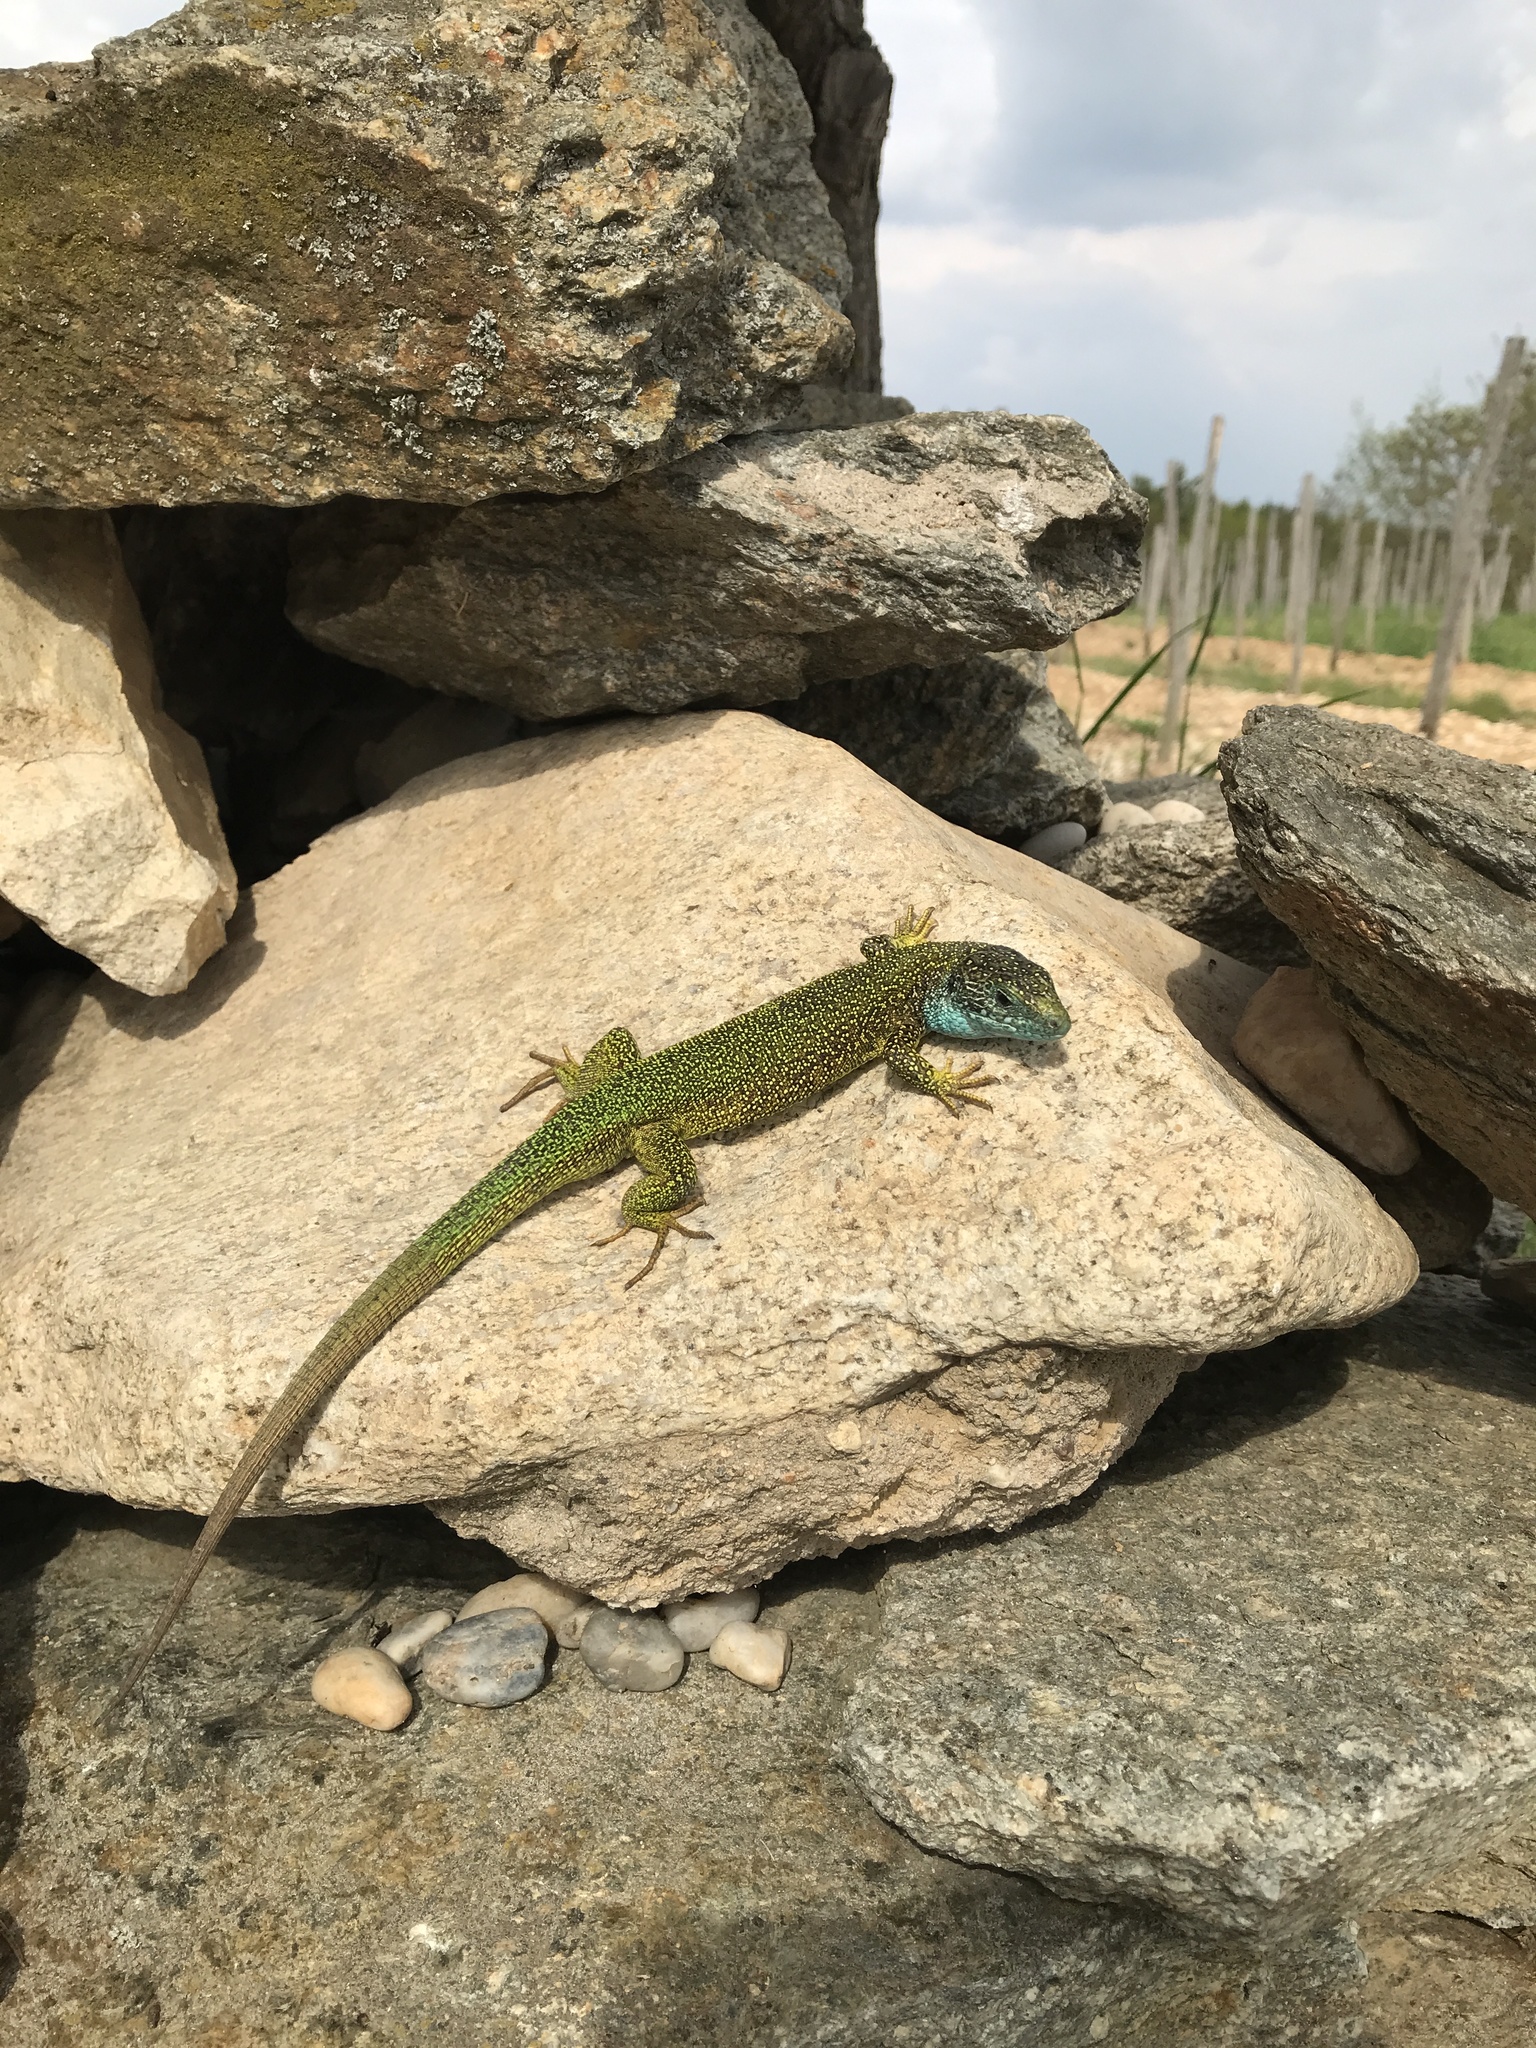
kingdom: Animalia
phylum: Chordata
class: Squamata
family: Lacertidae
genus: Lacerta
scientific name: Lacerta viridis
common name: European green lizard
